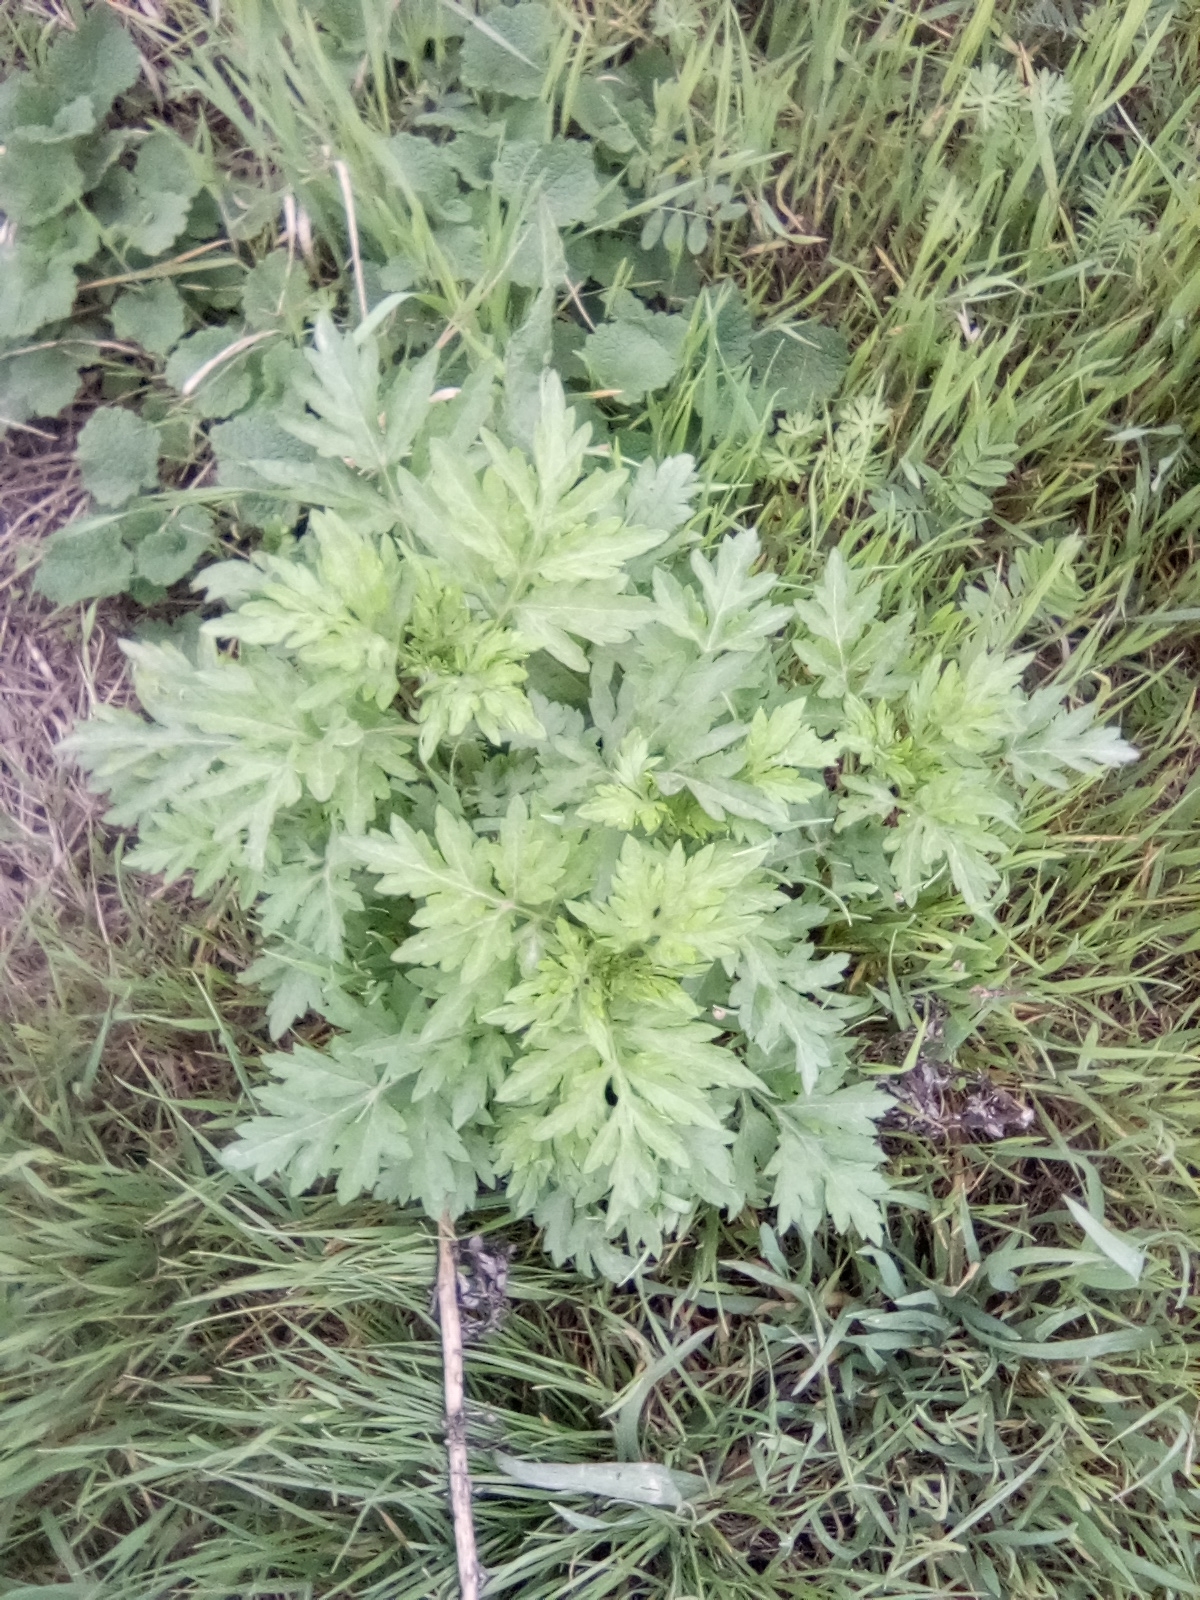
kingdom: Plantae
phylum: Tracheophyta
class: Magnoliopsida
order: Asterales
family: Asteraceae
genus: Artemisia
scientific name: Artemisia vulgaris
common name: Mugwort
